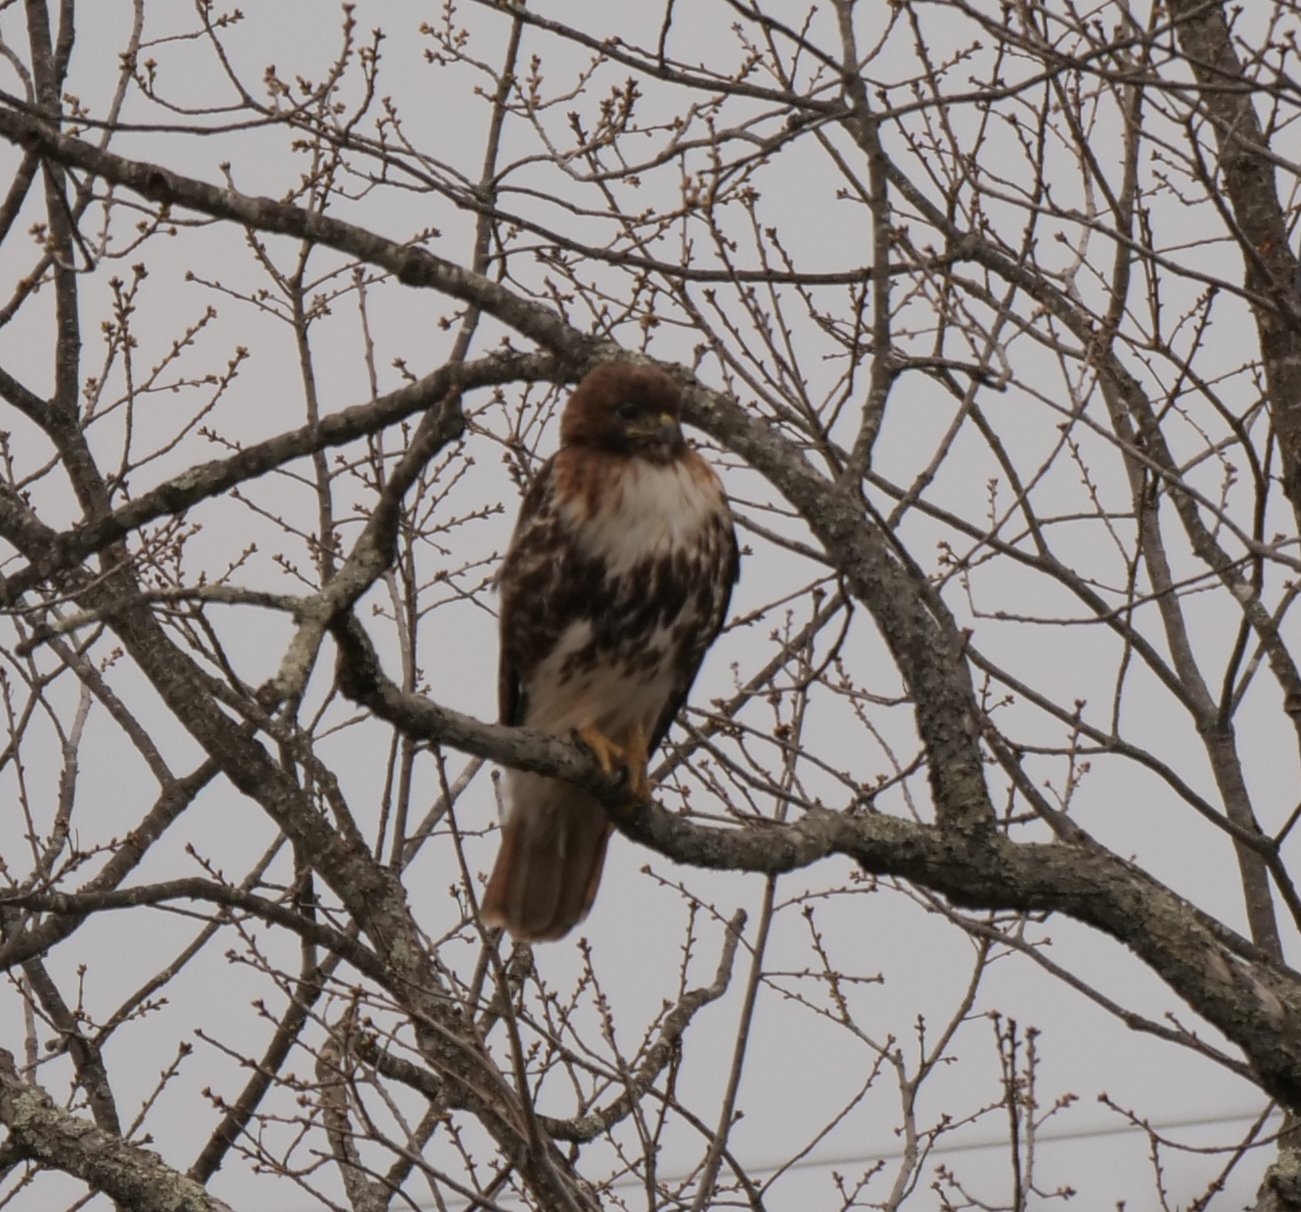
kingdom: Animalia
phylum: Chordata
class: Aves
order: Accipitriformes
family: Accipitridae
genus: Buteo
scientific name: Buteo jamaicensis
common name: Red-tailed hawk
